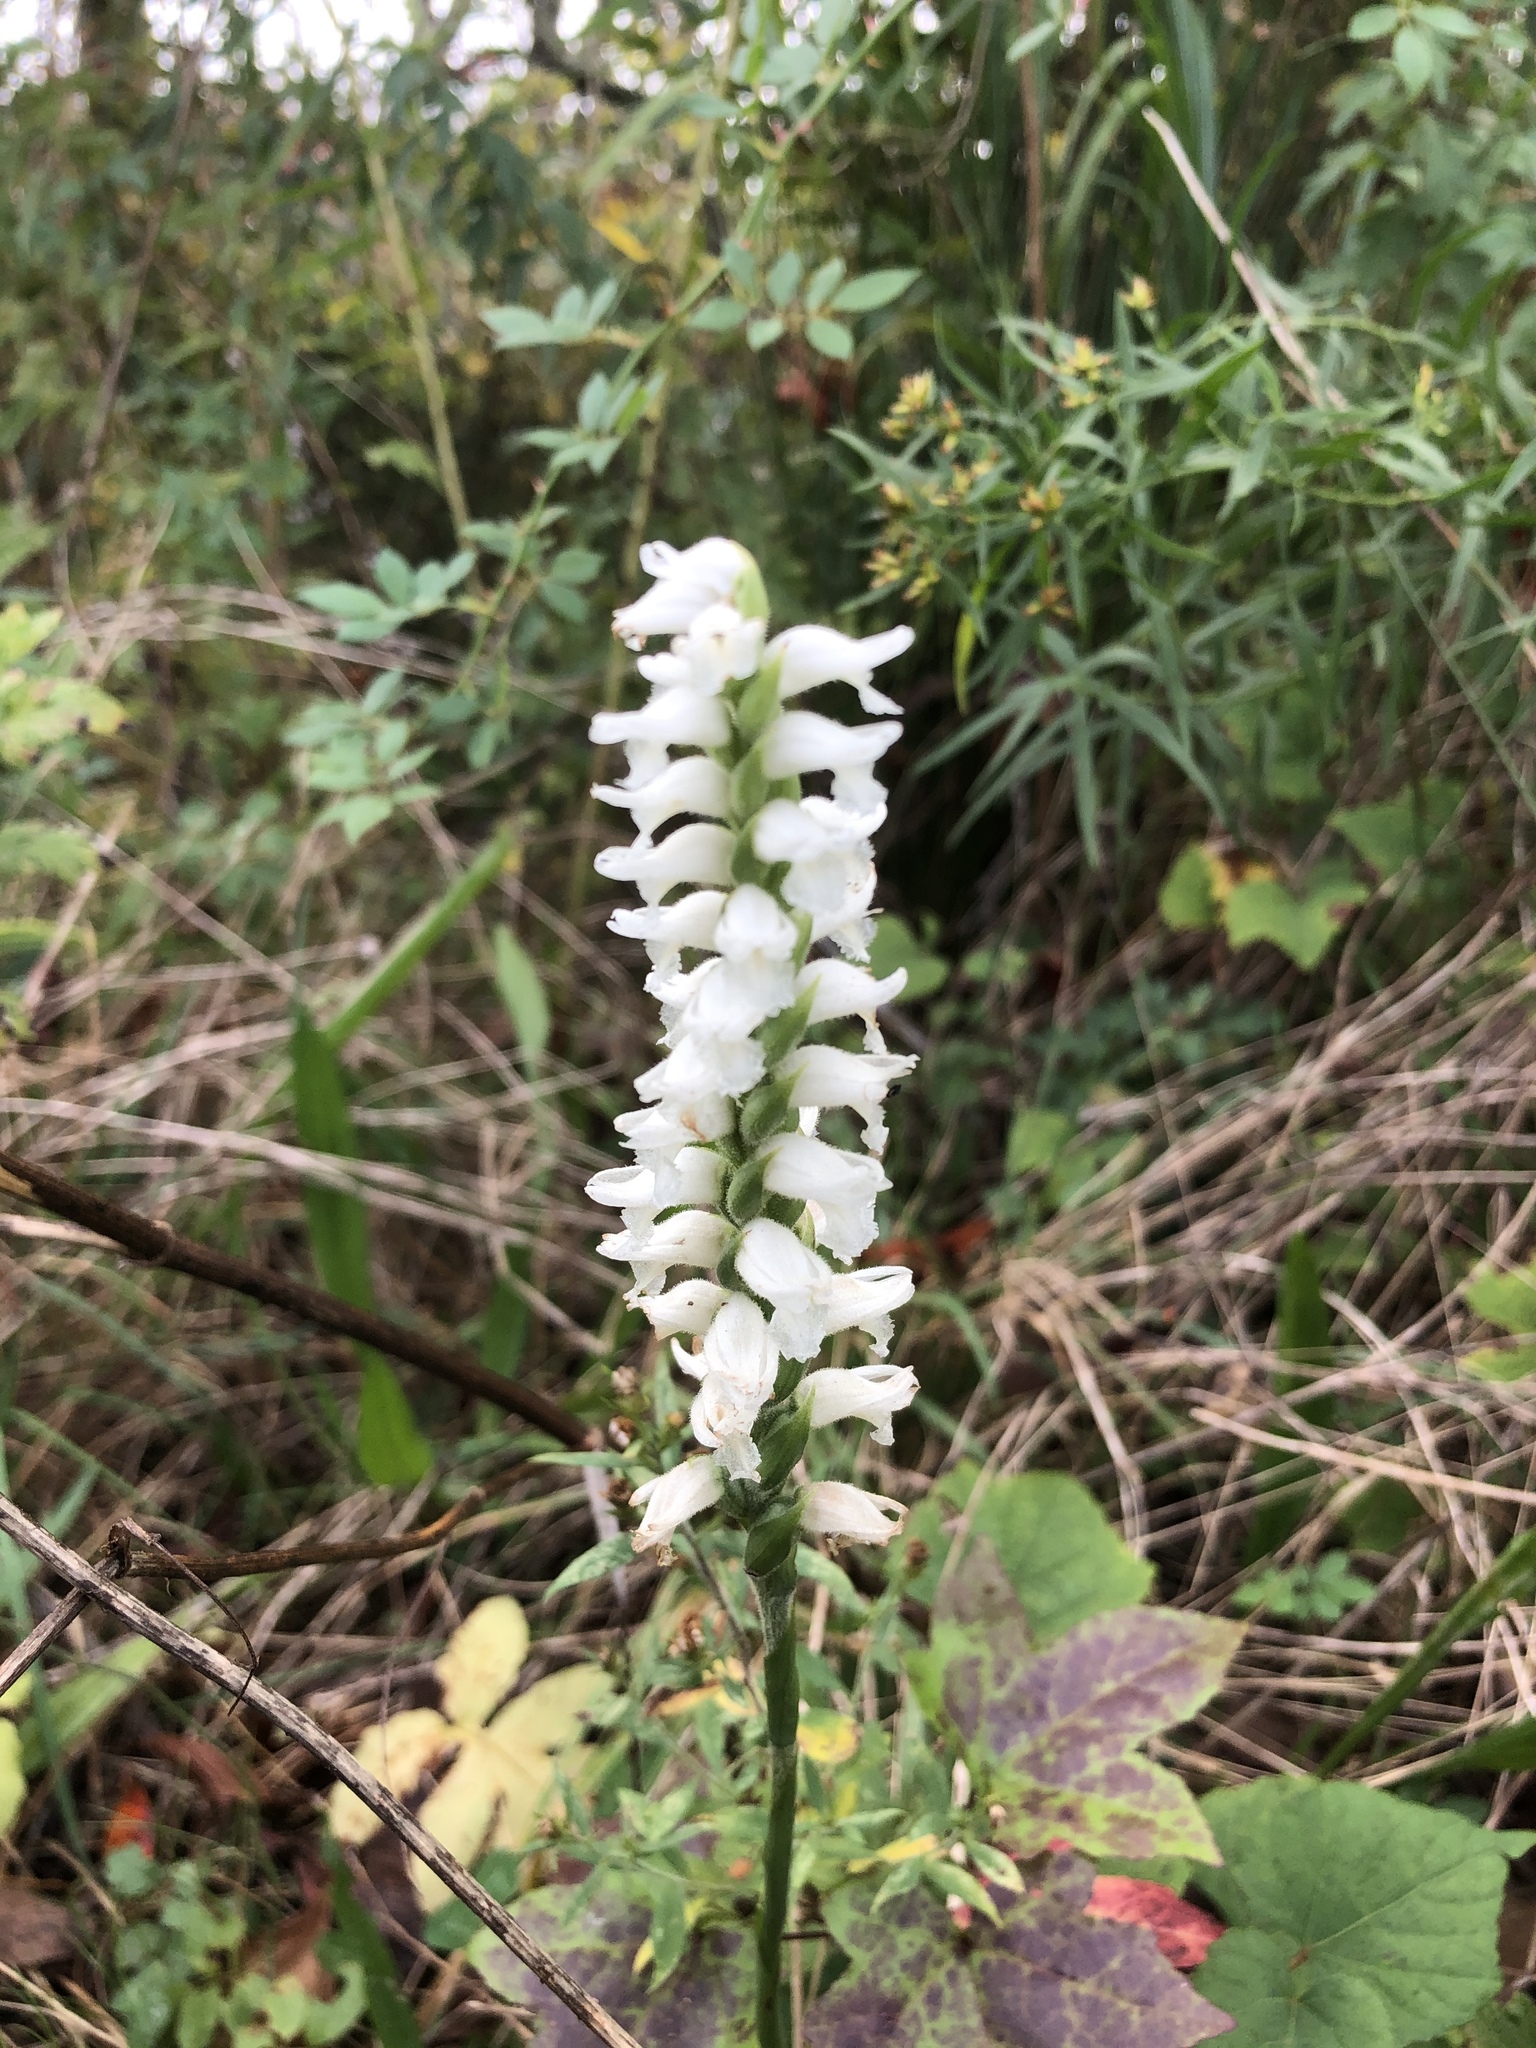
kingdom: Plantae
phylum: Tracheophyta
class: Liliopsida
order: Asparagales
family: Orchidaceae
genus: Spiranthes
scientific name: Spiranthes bightensis
